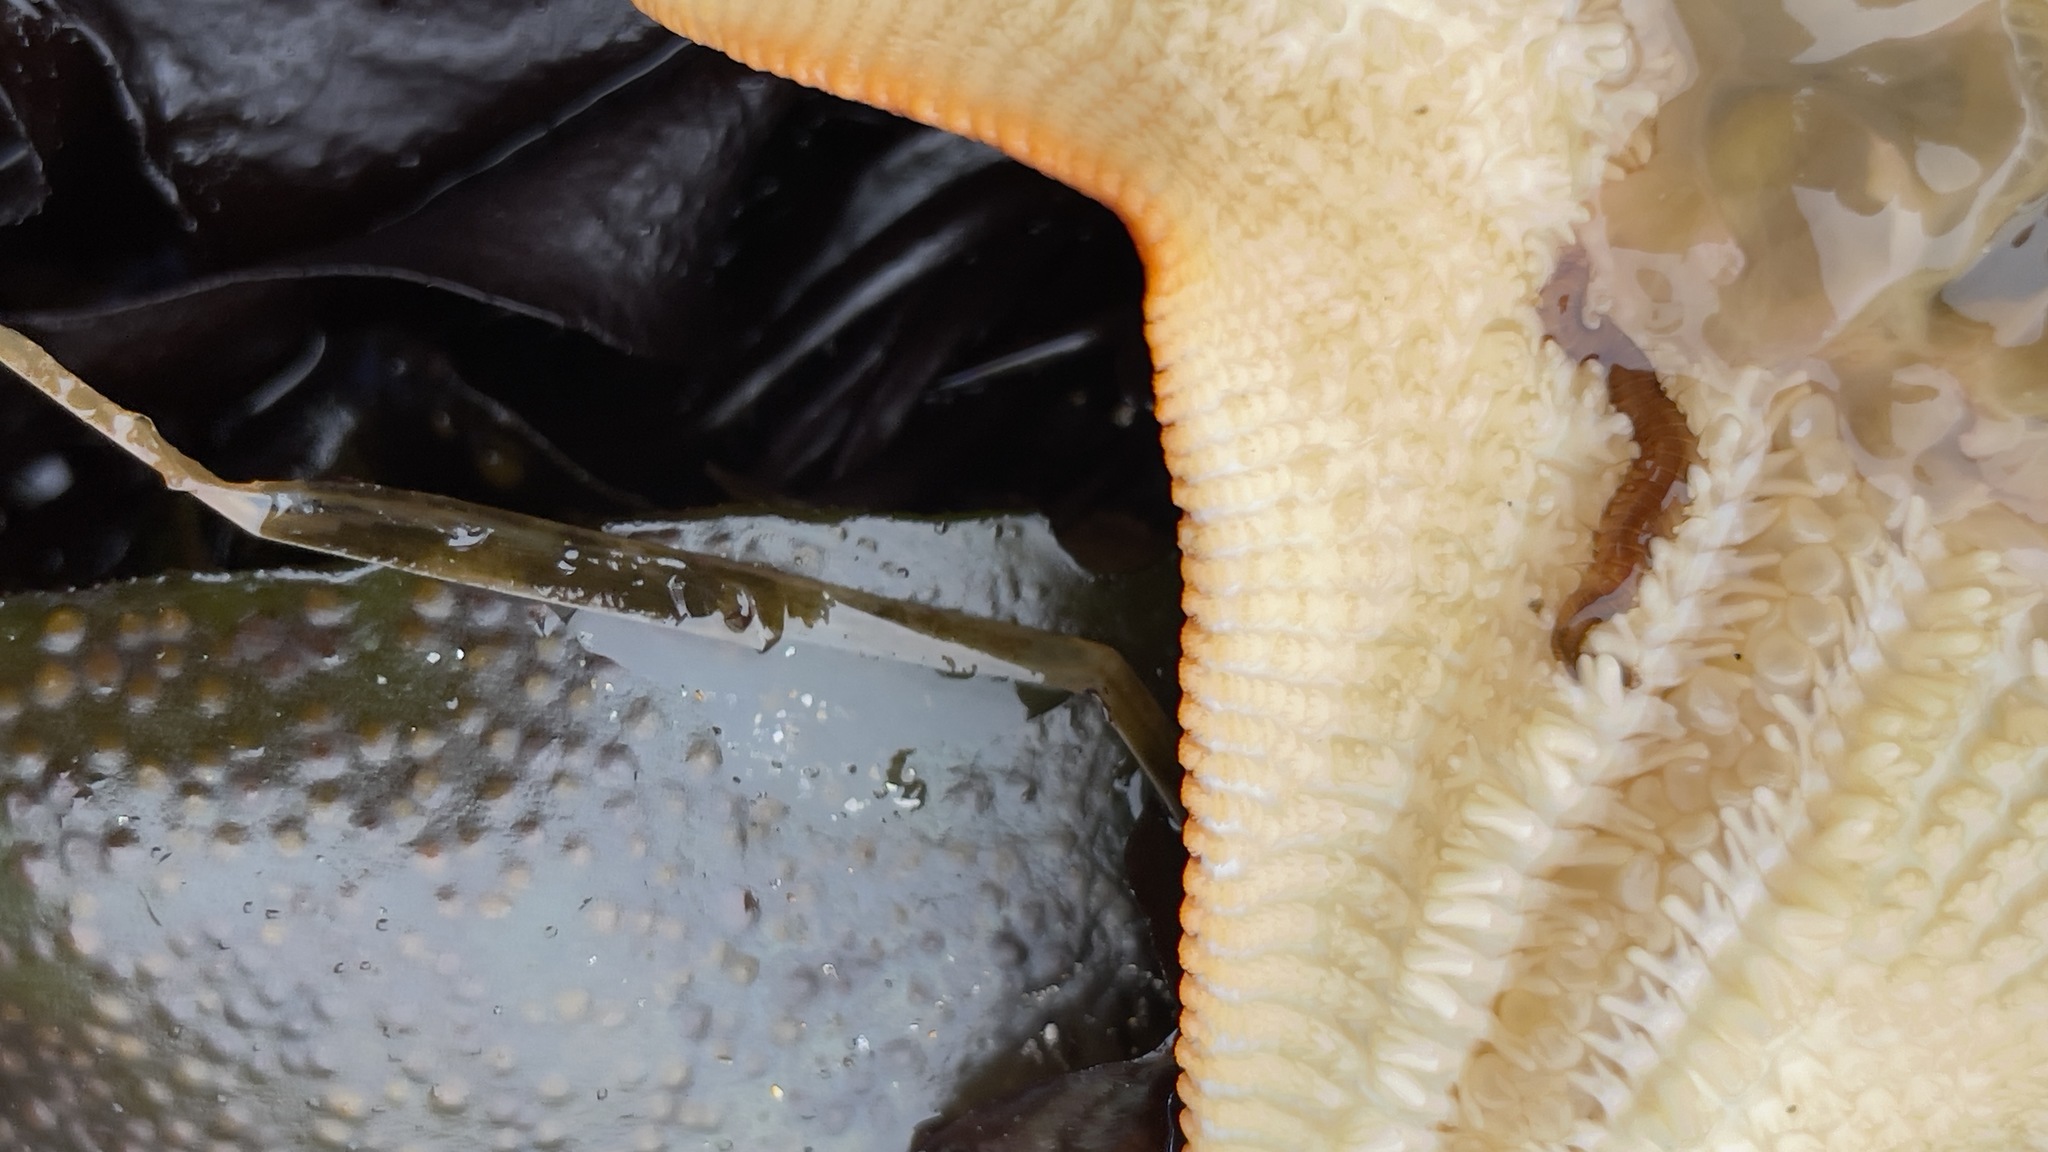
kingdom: Animalia
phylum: Annelida
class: Polychaeta
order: Phyllodocida
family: Hesionidae
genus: Oxydromus
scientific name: Oxydromus pugettensis
